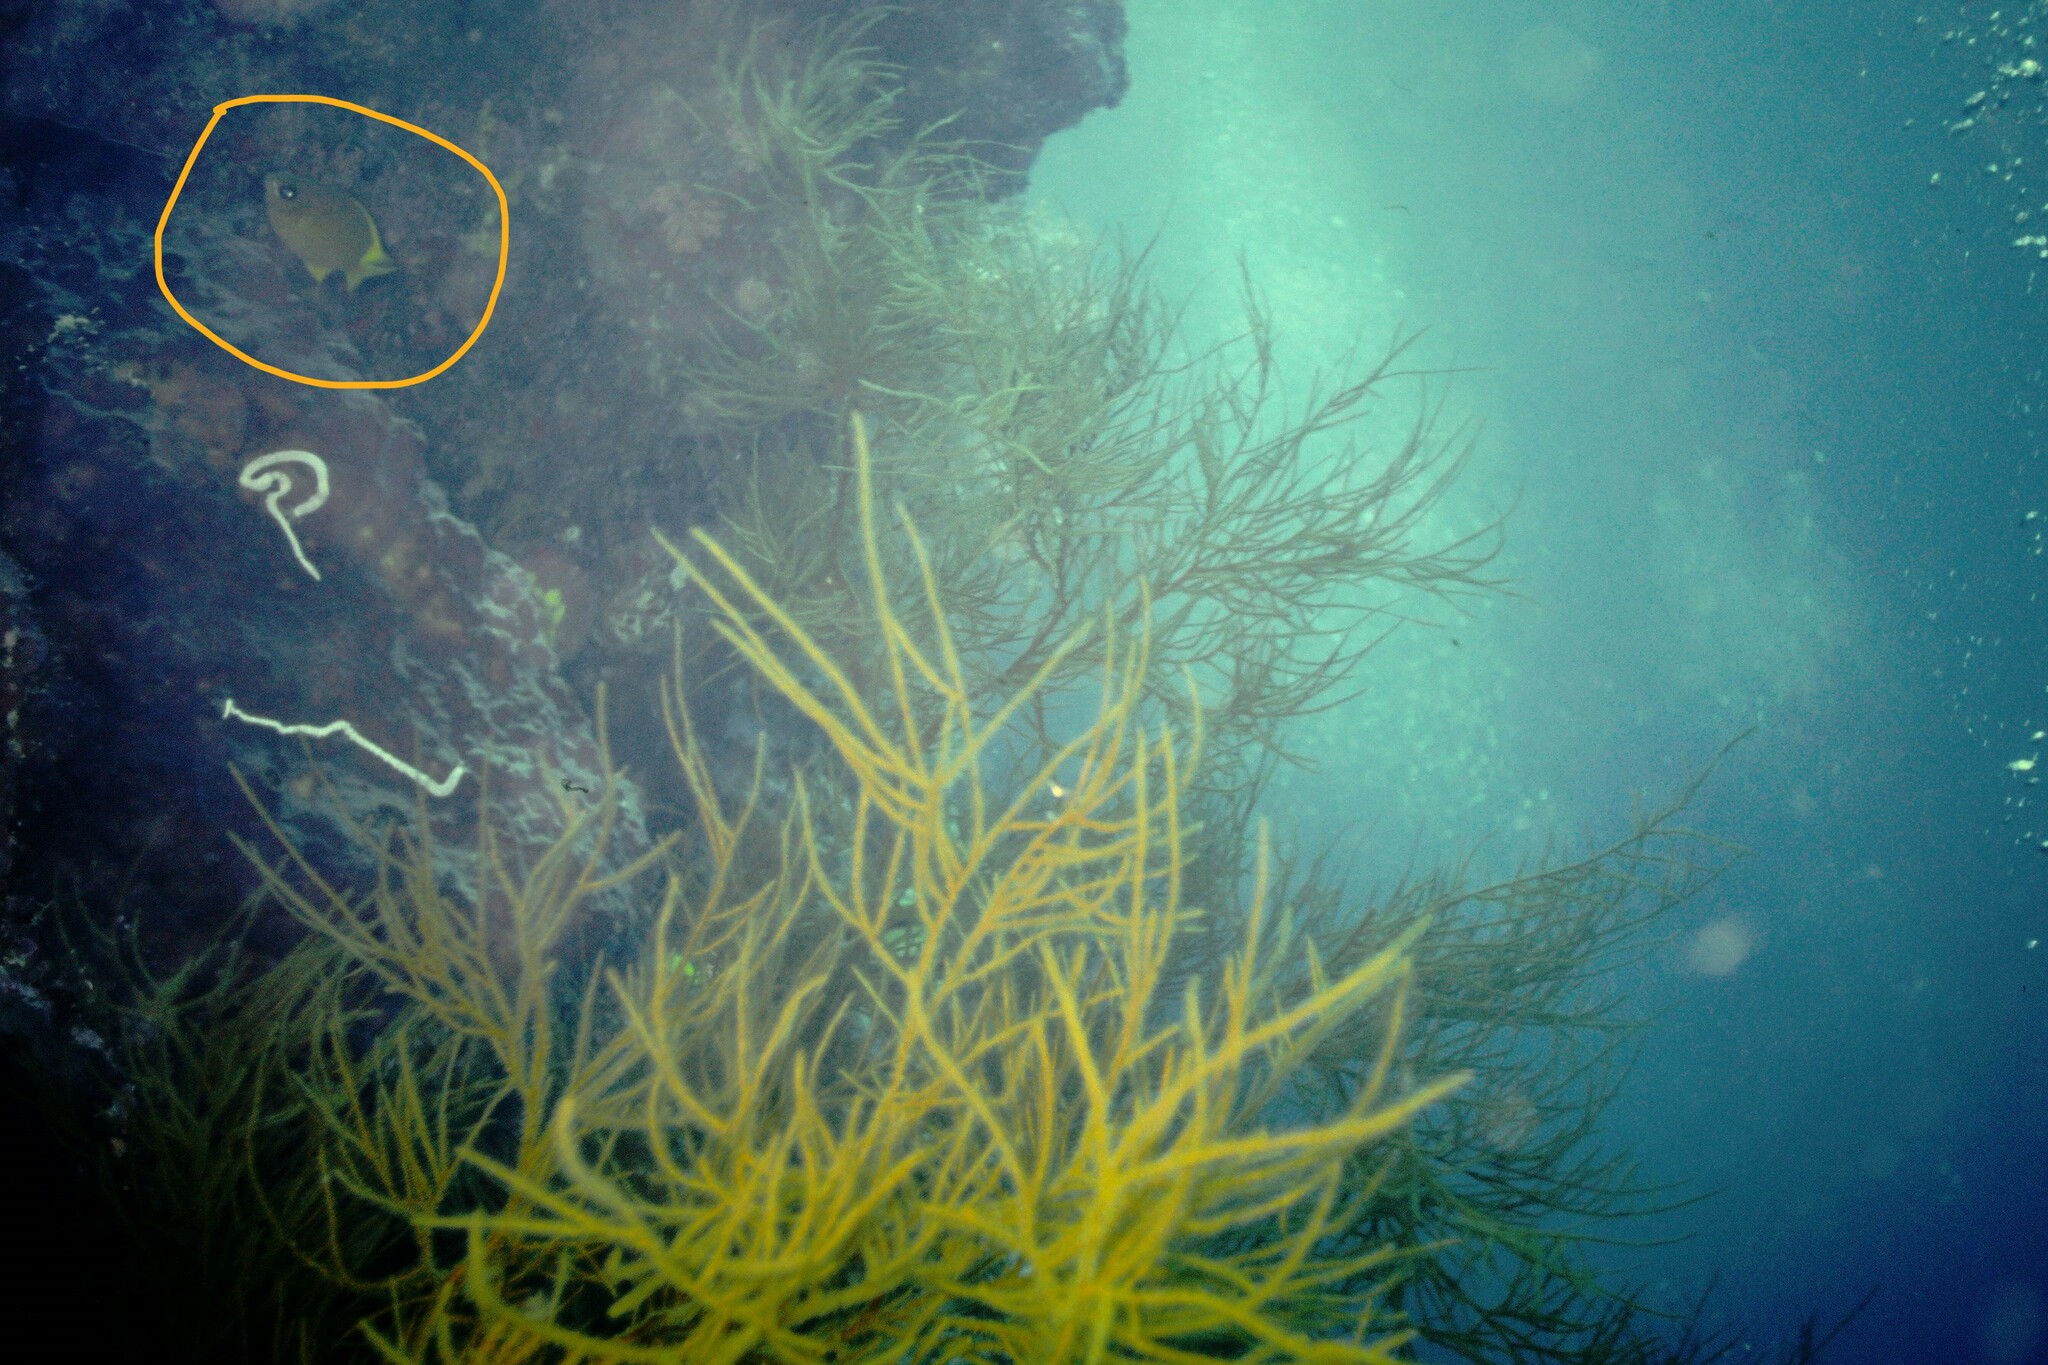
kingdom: Animalia
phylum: Chordata
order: Perciformes
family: Pomacentridae
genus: Chromis
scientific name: Chromis analis
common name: Yellow chromis
